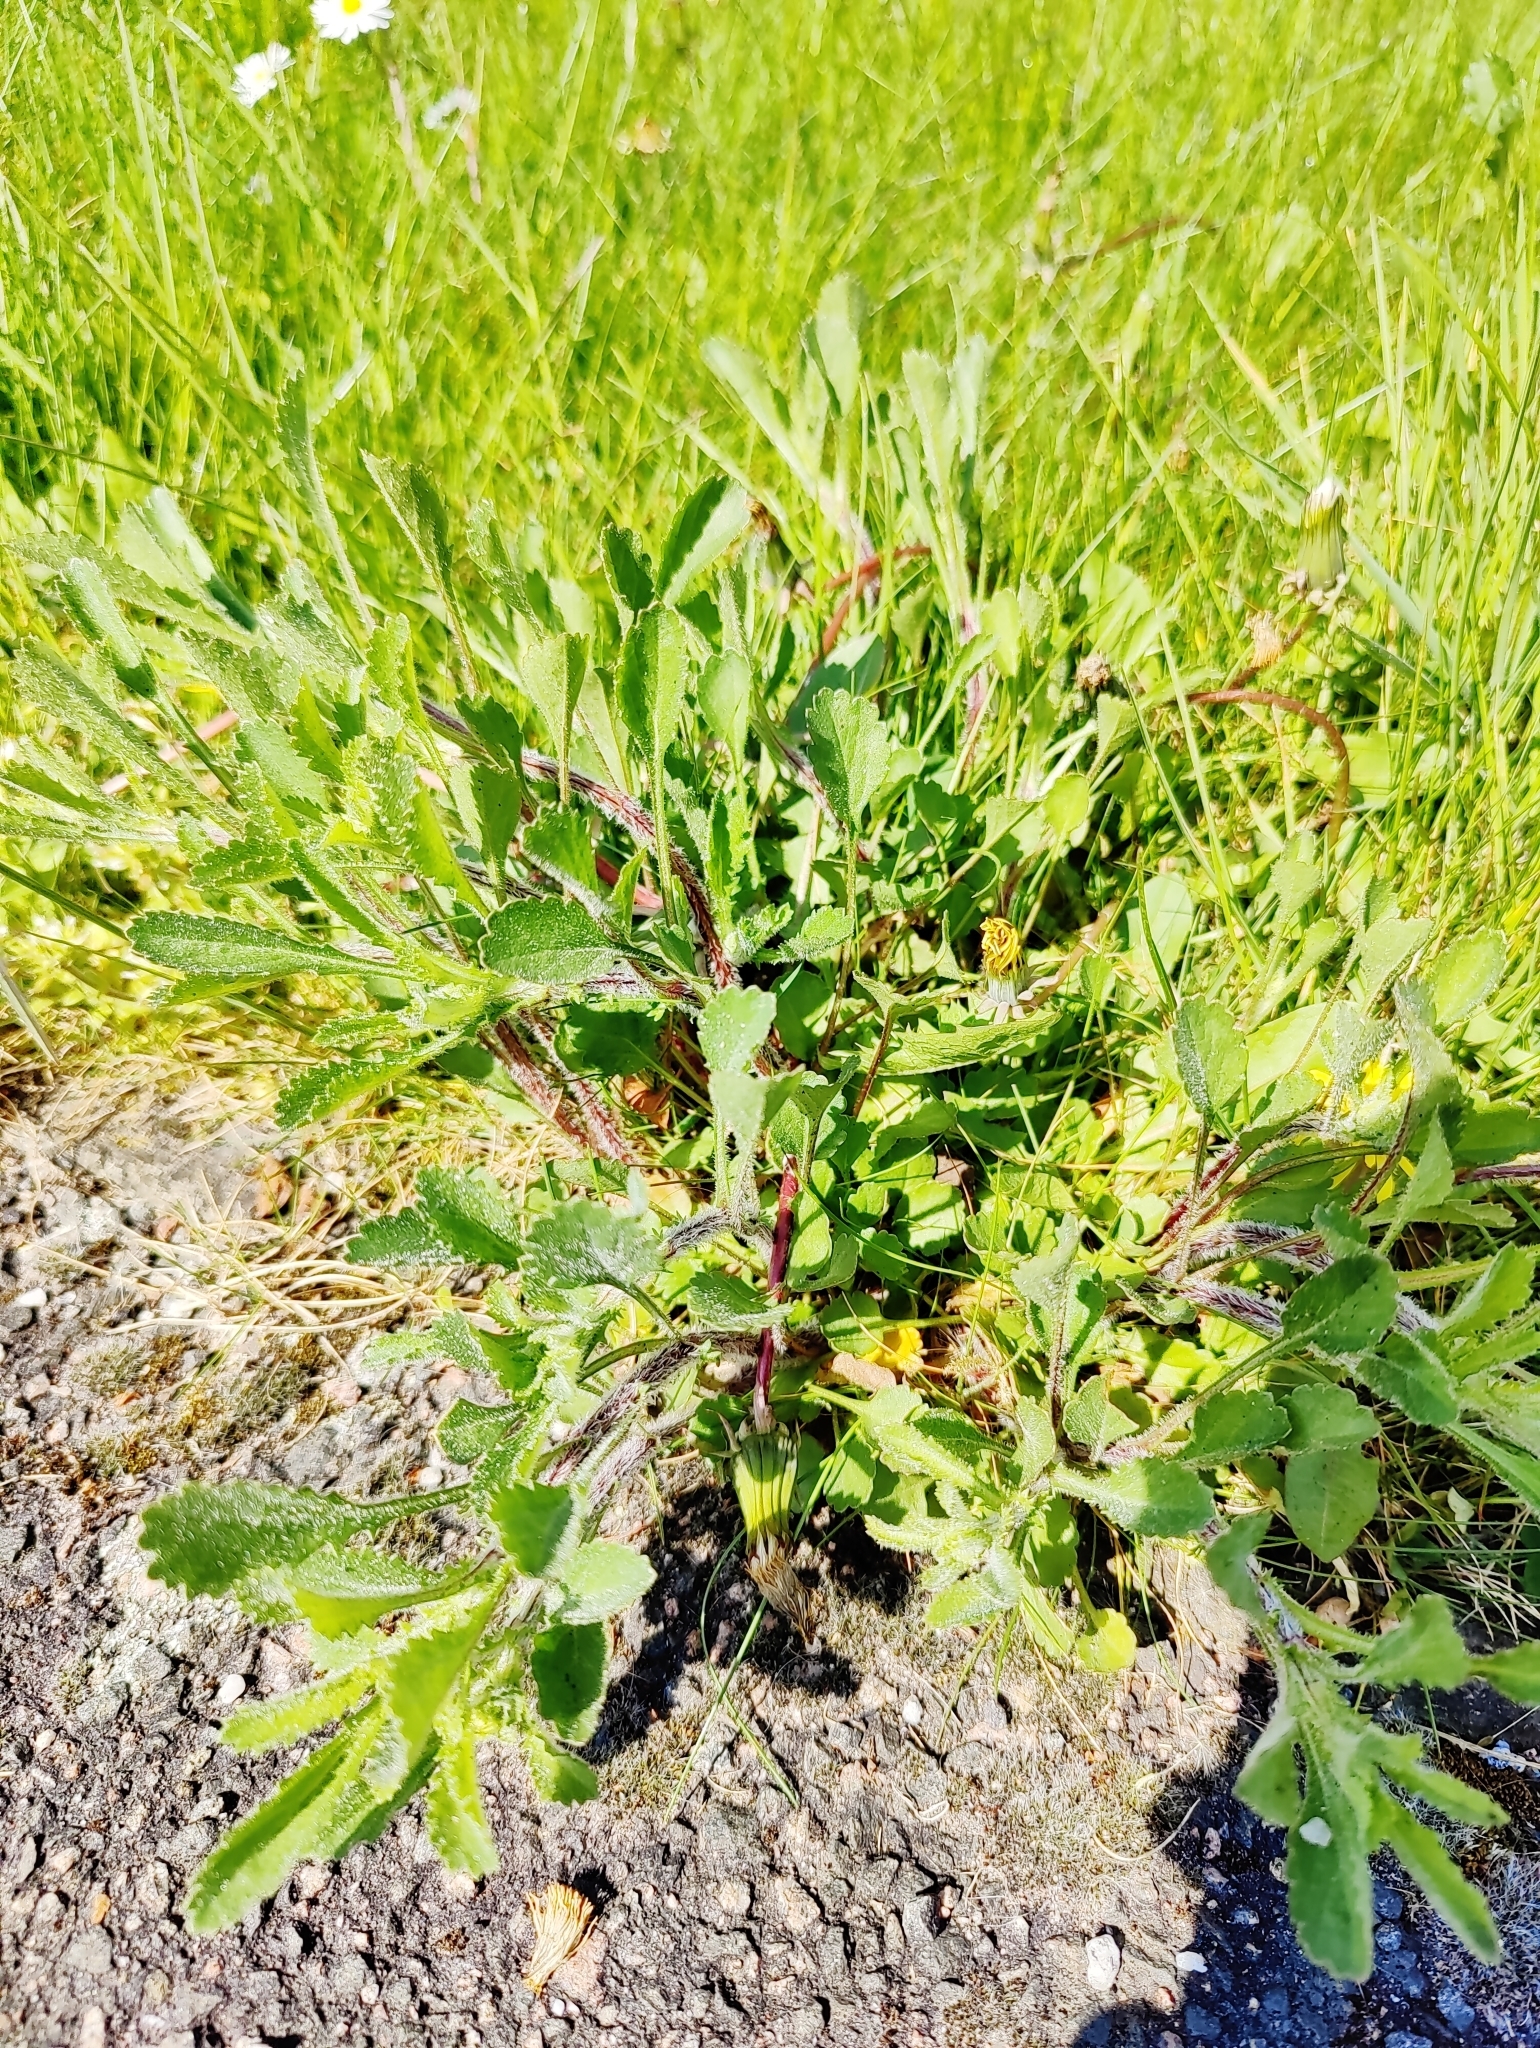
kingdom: Plantae
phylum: Tracheophyta
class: Magnoliopsida
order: Asterales
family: Asteraceae
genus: Leucanthemum
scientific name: Leucanthemum vulgare
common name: Oxeye daisy
